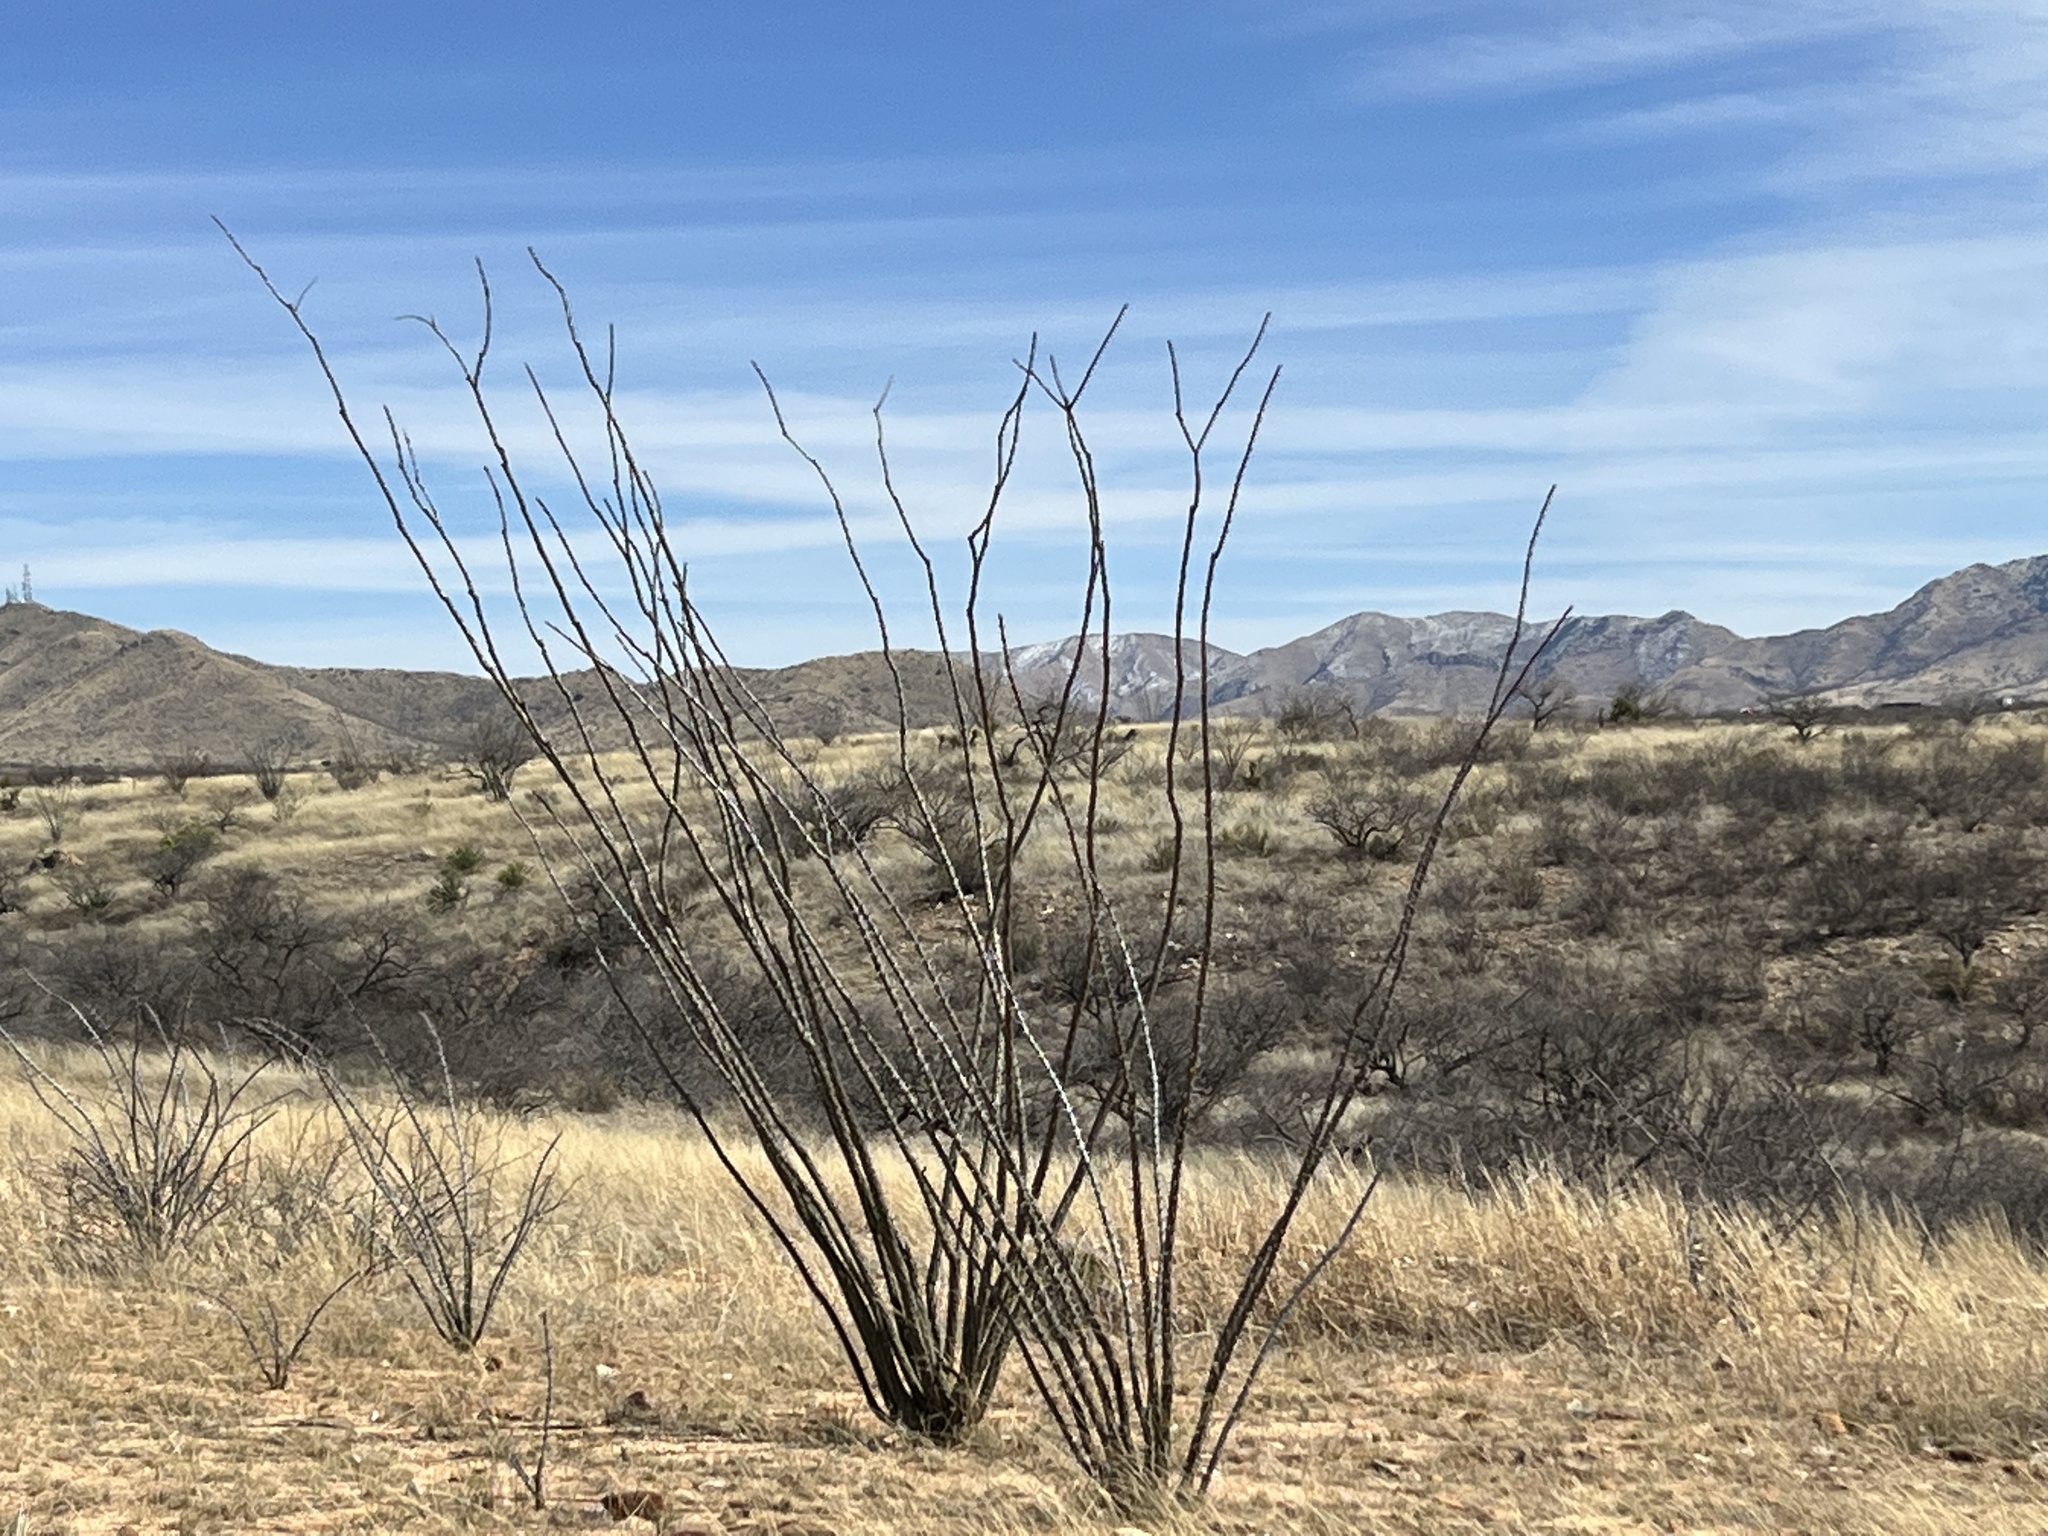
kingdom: Plantae
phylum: Tracheophyta
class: Magnoliopsida
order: Ericales
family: Fouquieriaceae
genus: Fouquieria
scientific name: Fouquieria splendens
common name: Vine-cactus
